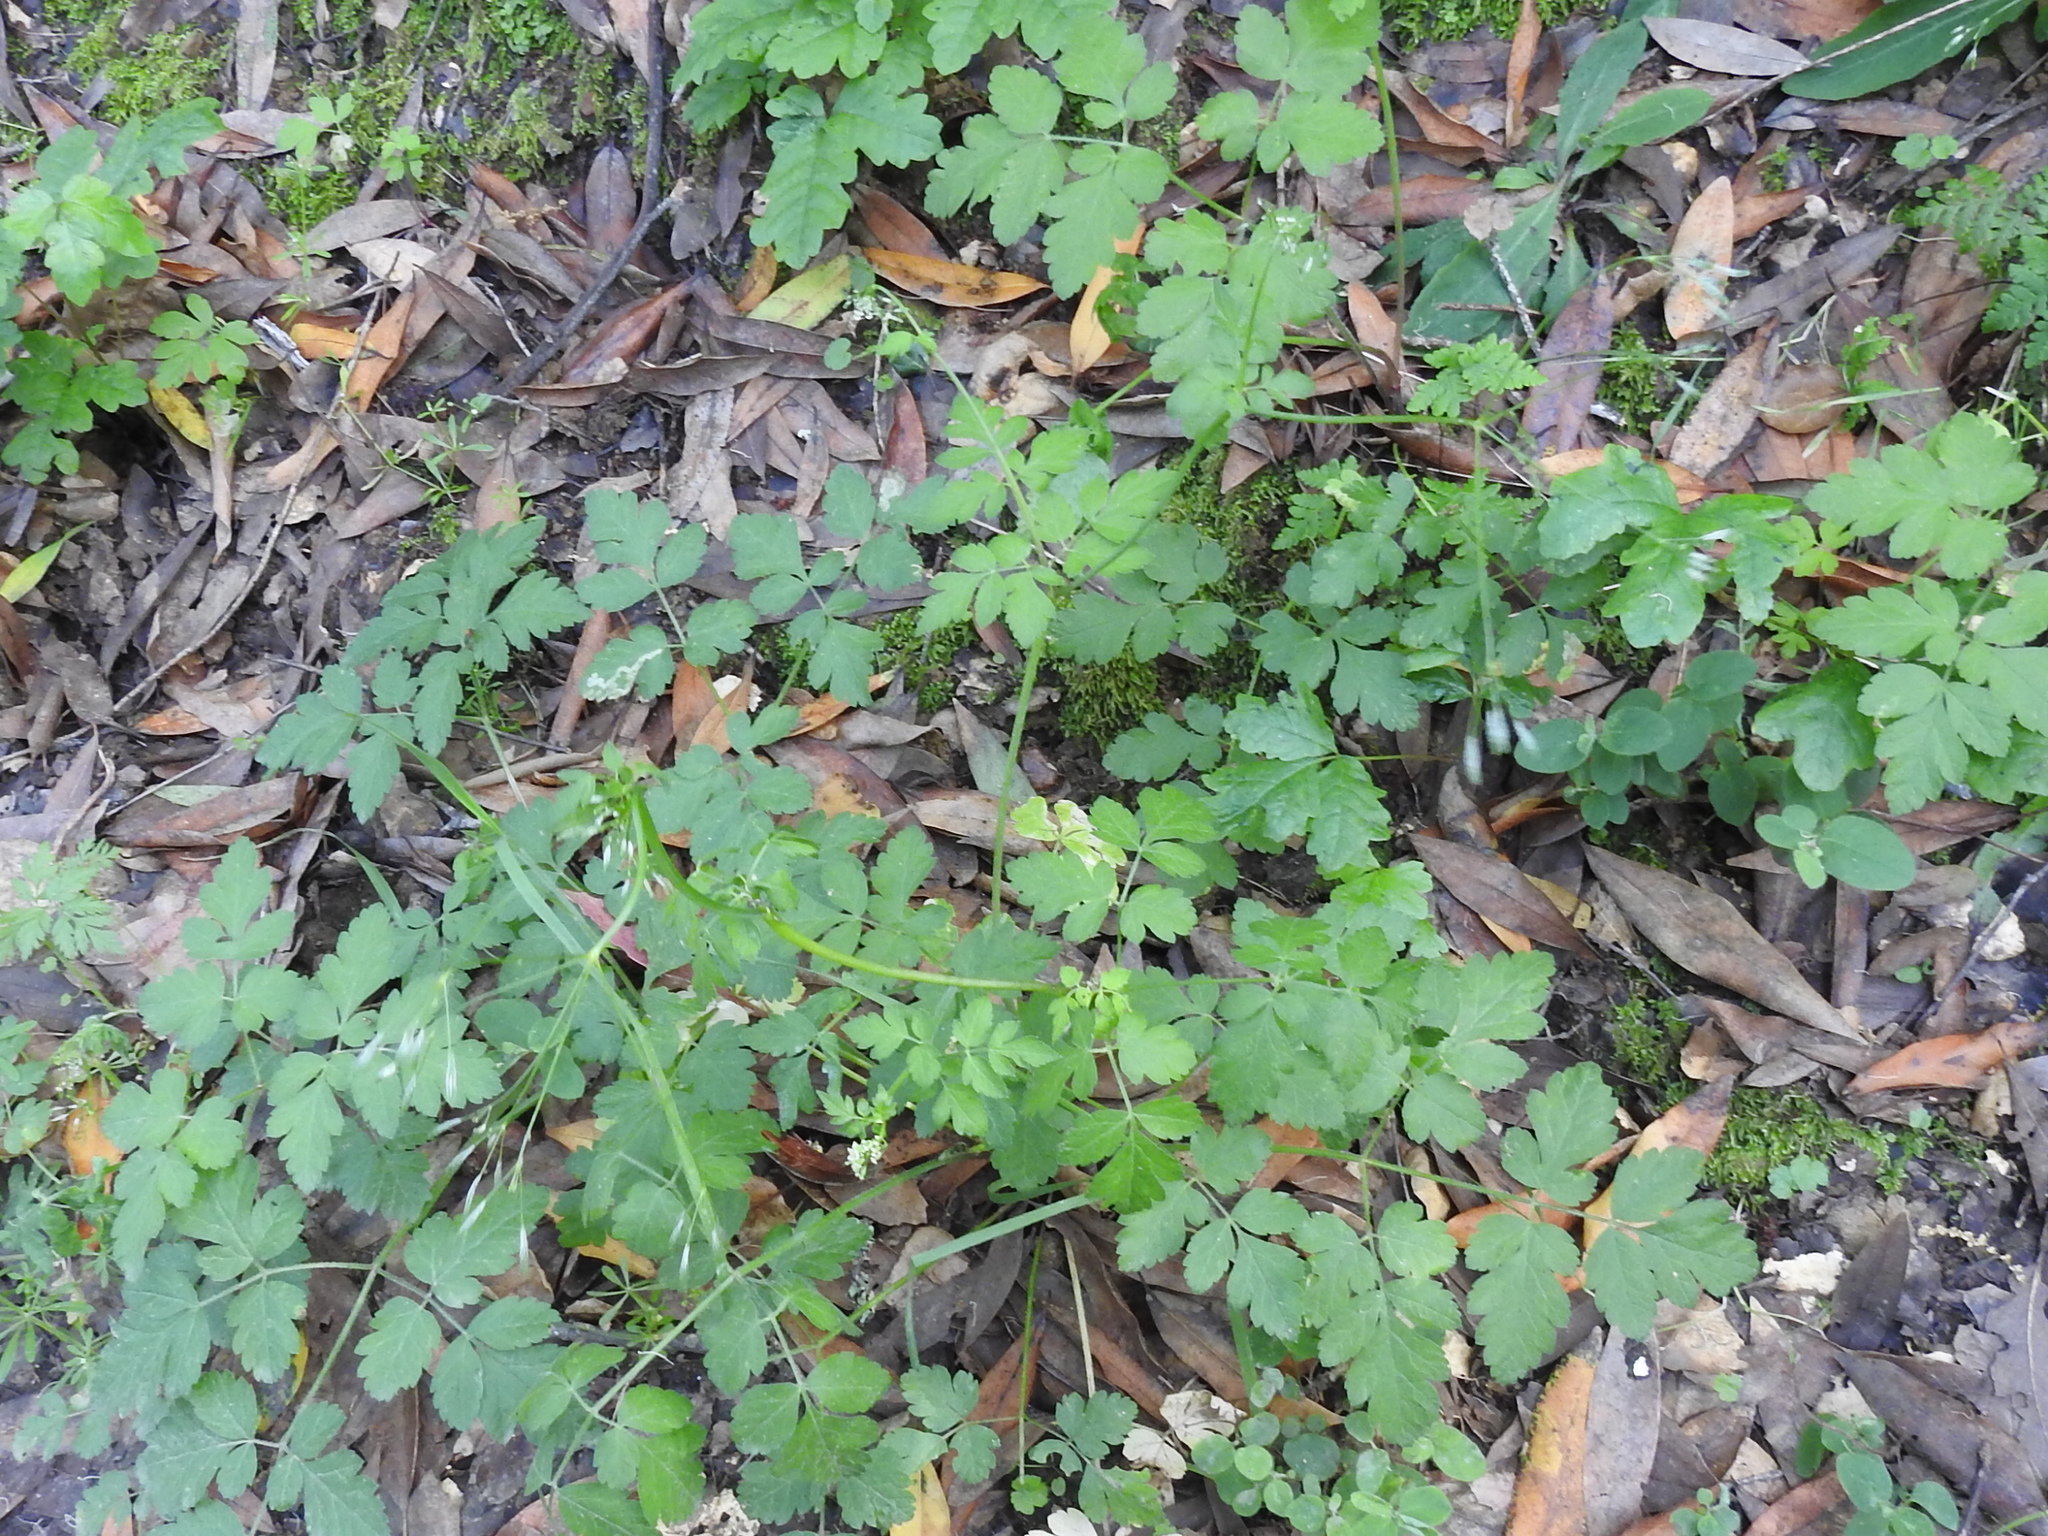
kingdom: Plantae
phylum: Tracheophyta
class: Magnoliopsida
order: Apiales
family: Apiaceae
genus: Osmorhiza
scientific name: Osmorhiza berteroi
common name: Mountain sweet cicely
